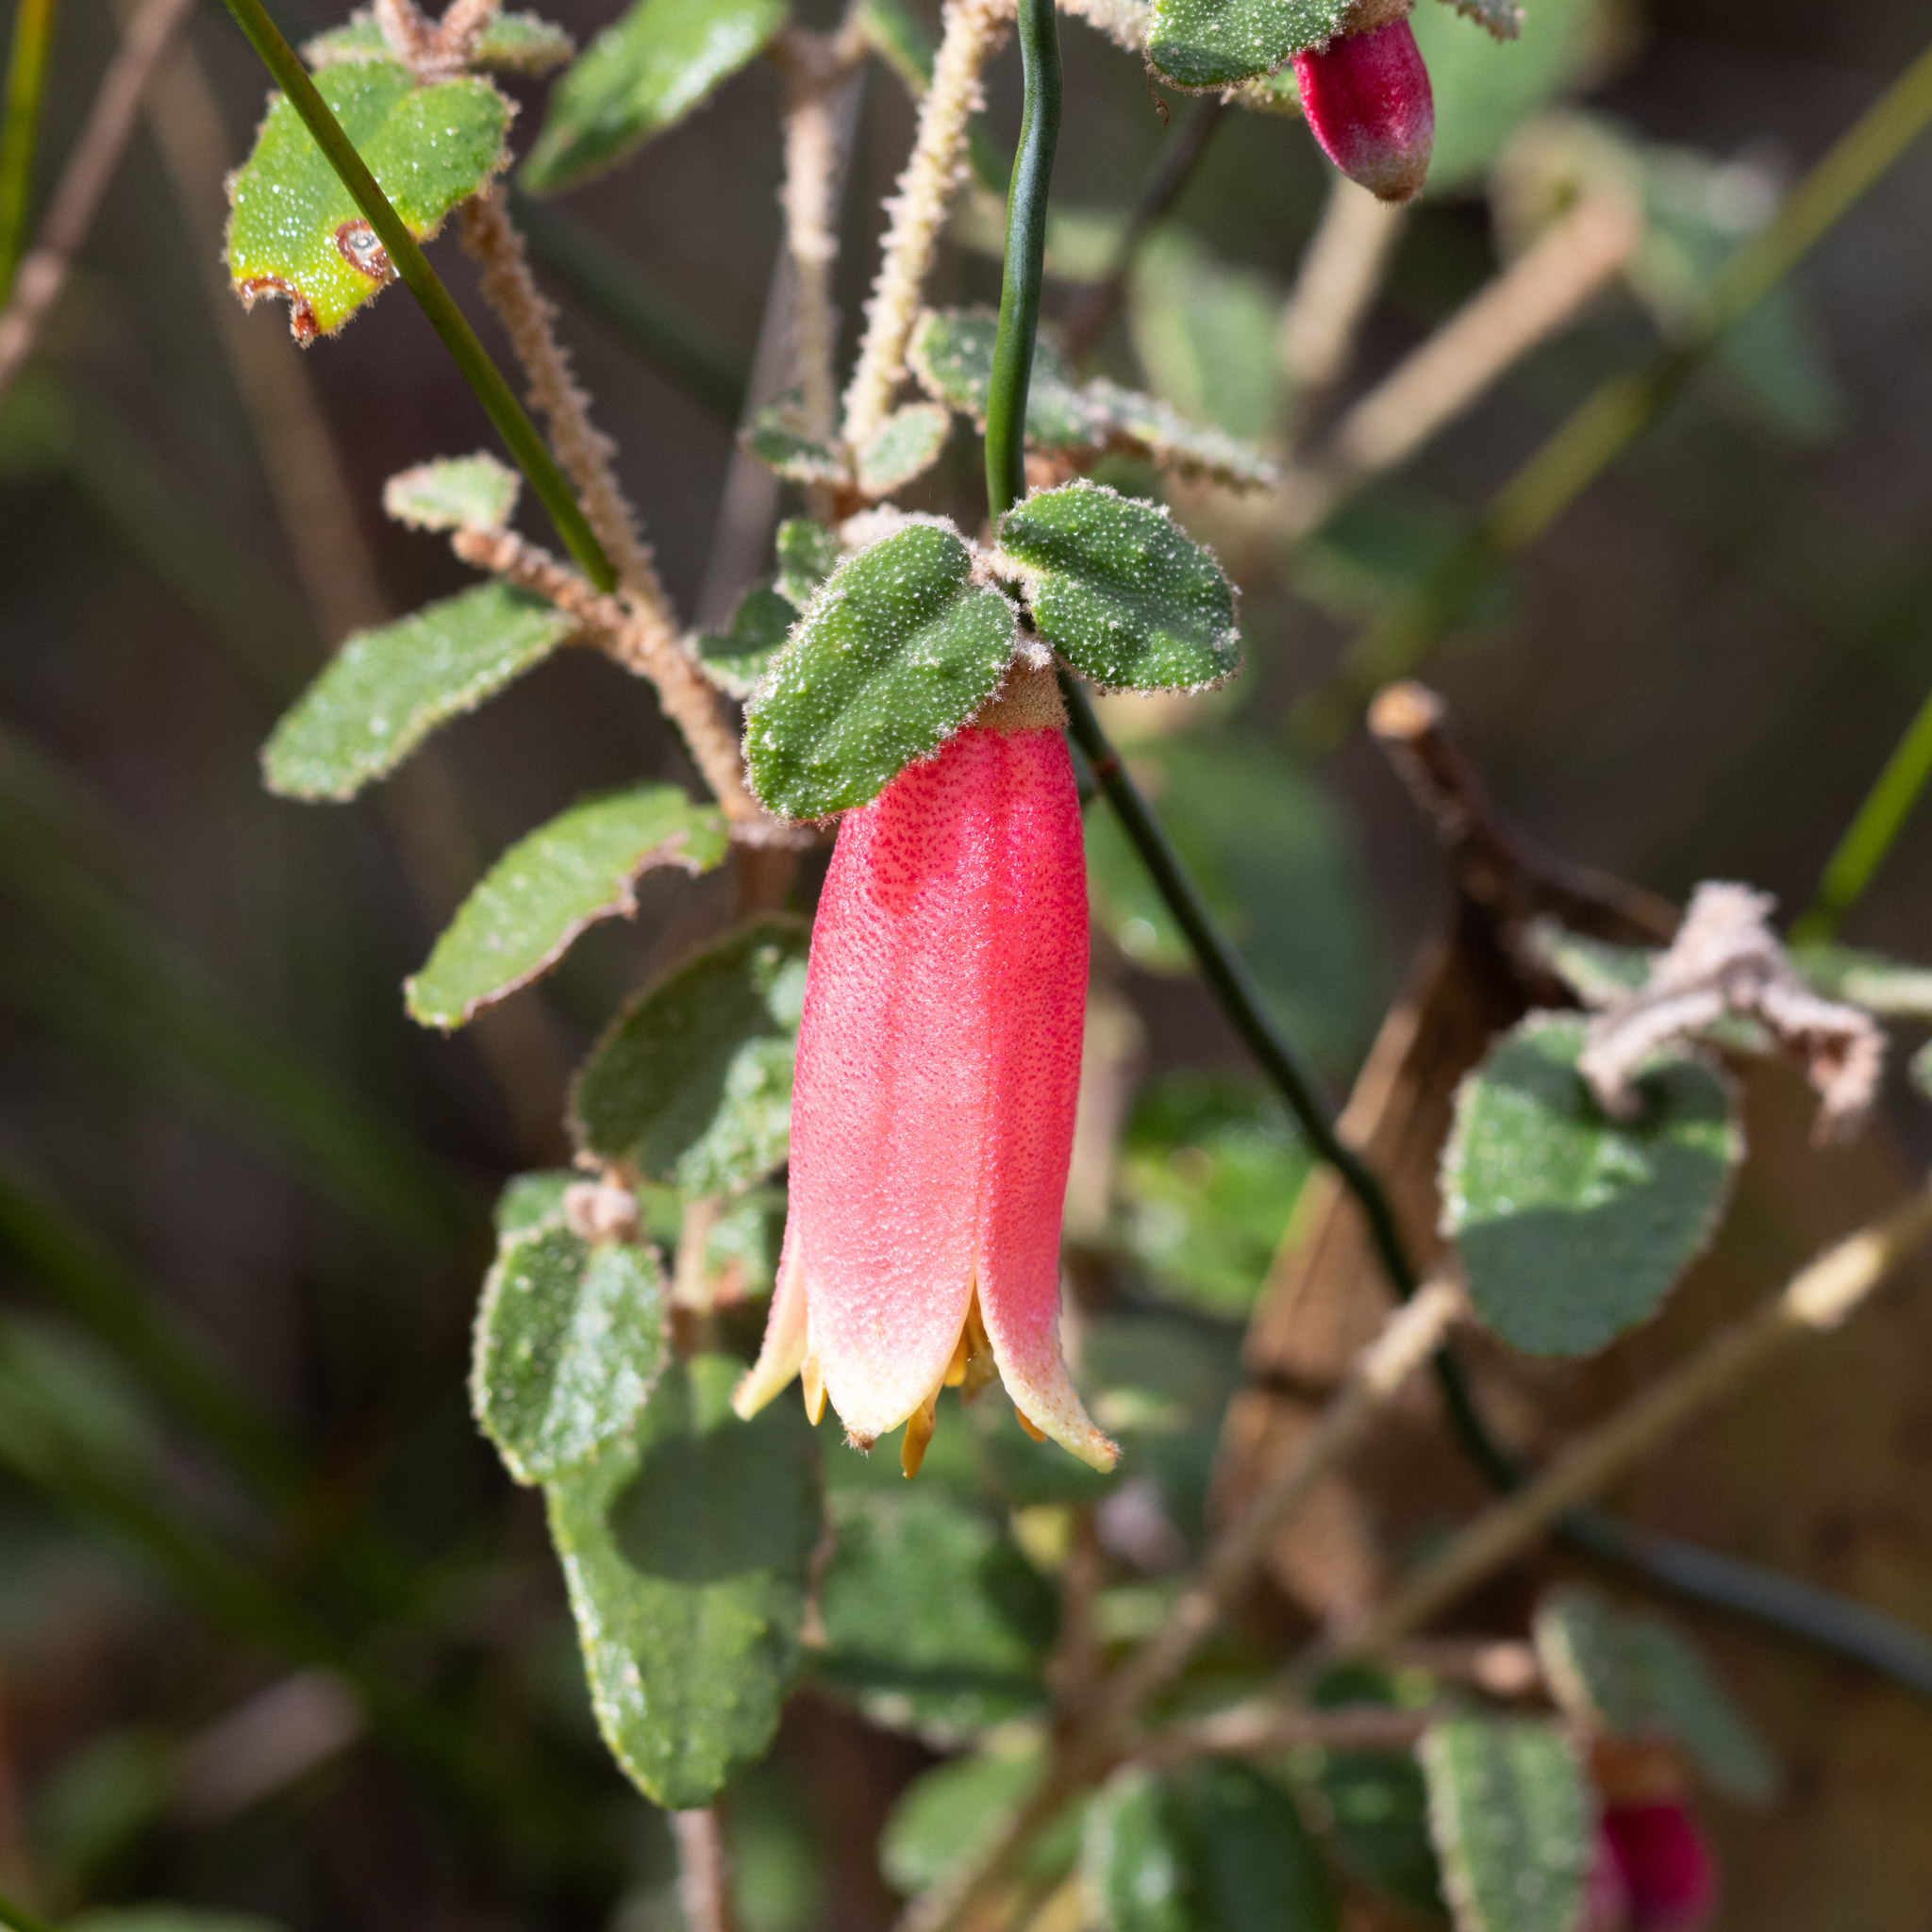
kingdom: Plantae
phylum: Tracheophyta
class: Magnoliopsida
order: Sapindales
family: Rutaceae
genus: Correa
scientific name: Correa reflexa
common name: Common correa
